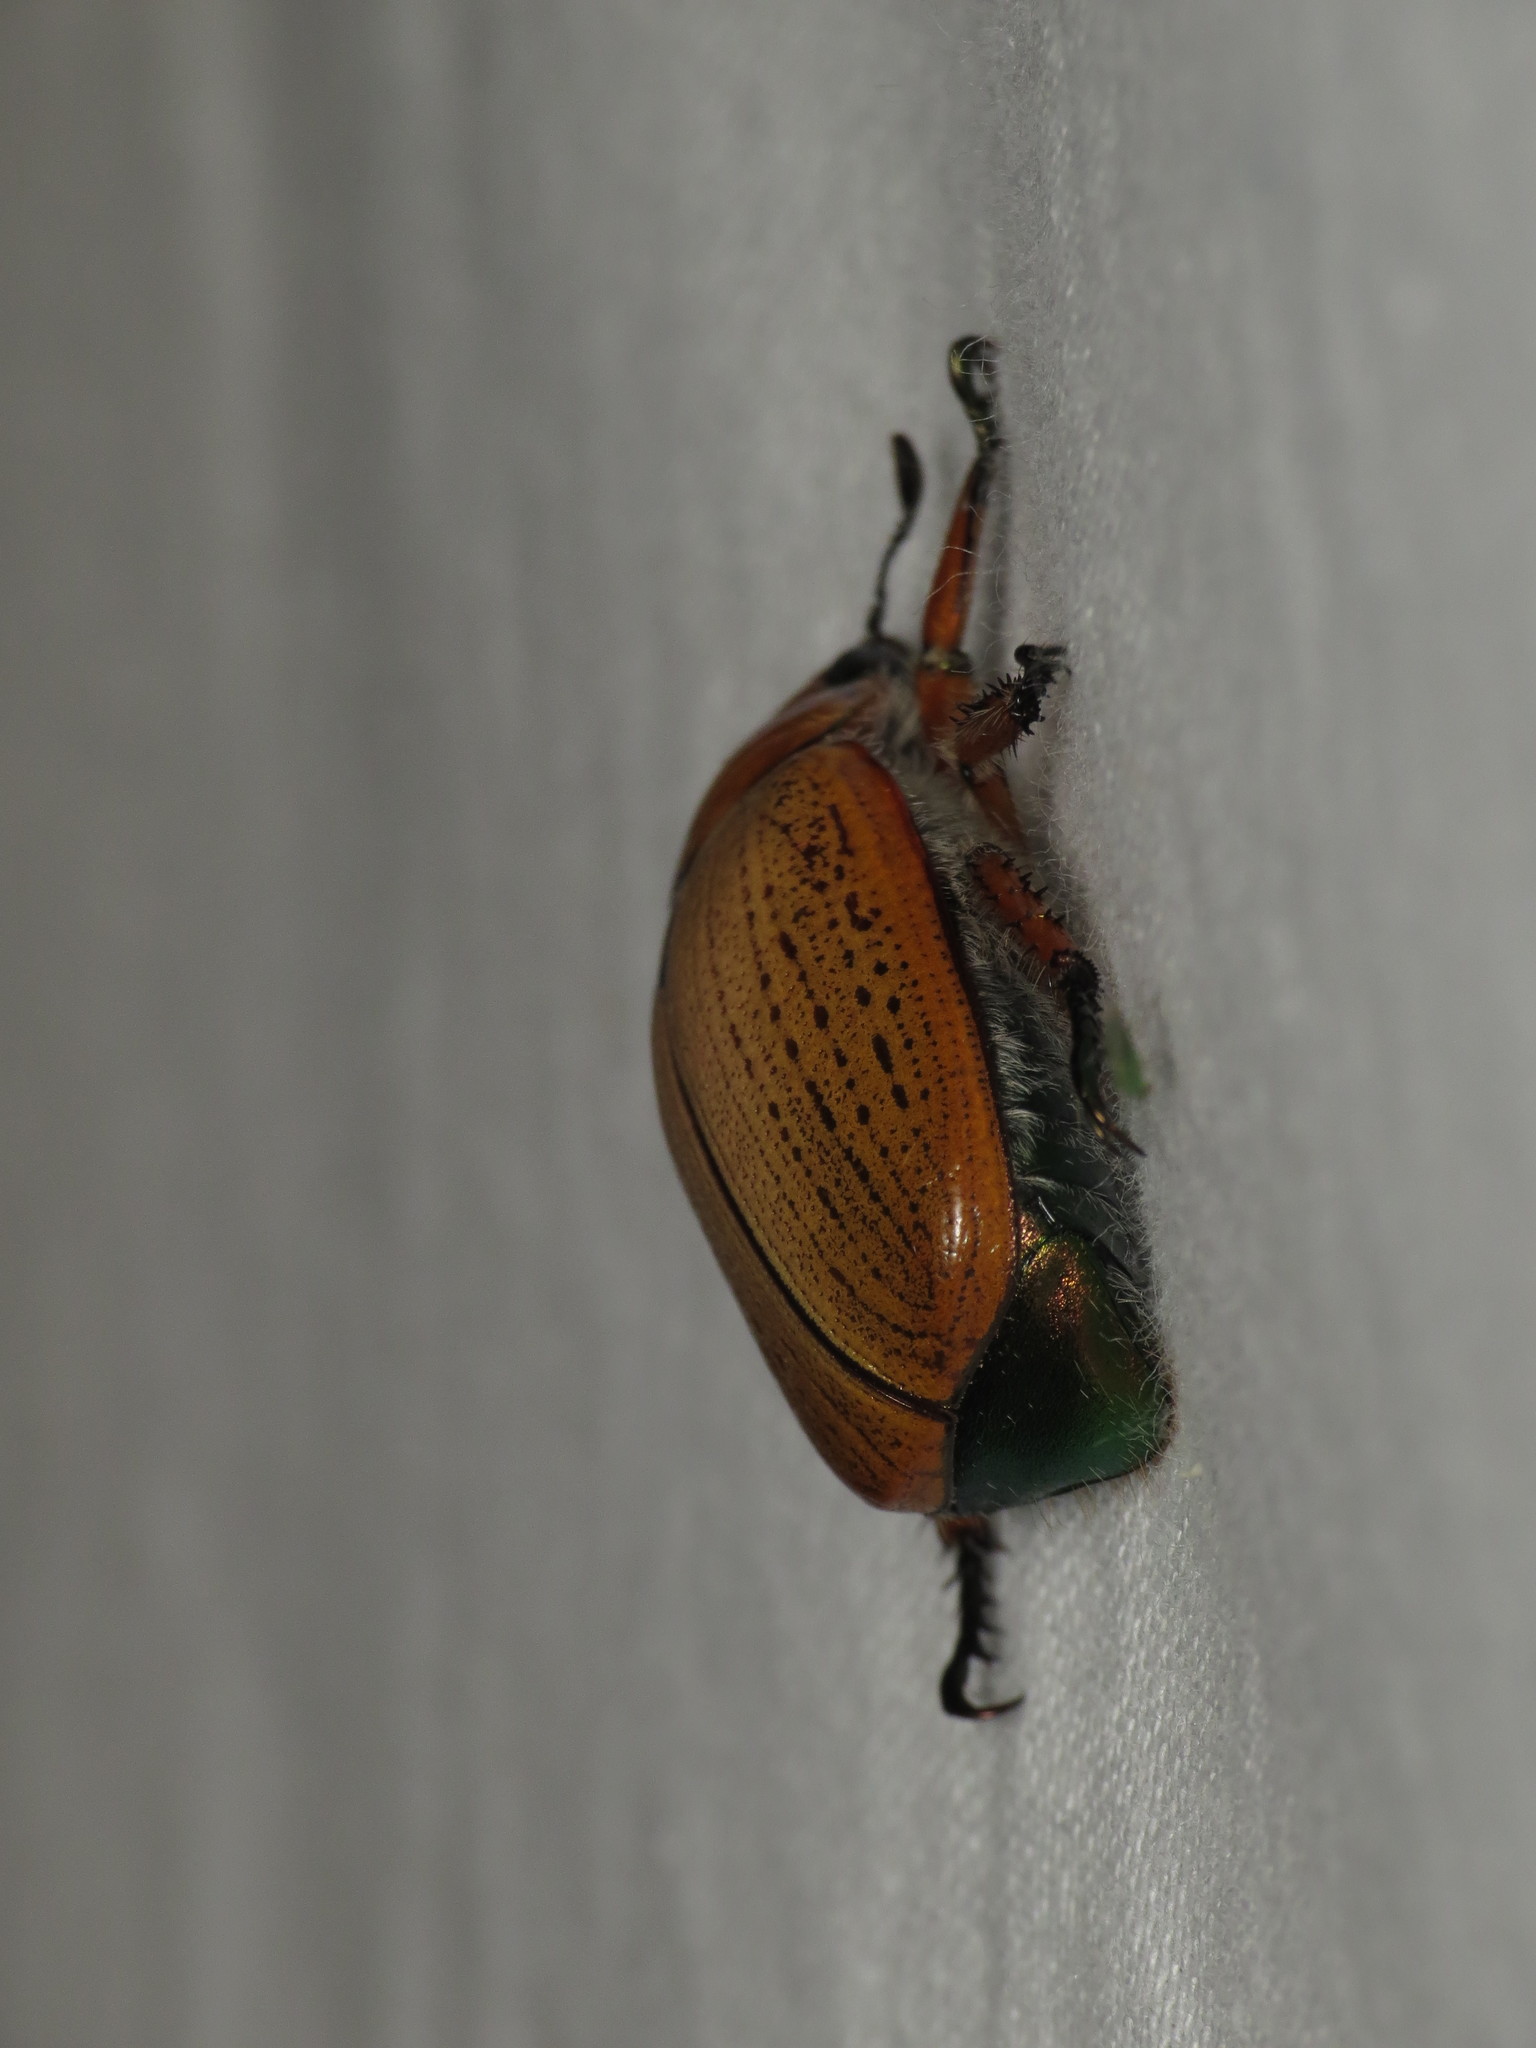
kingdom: Animalia
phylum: Arthropoda
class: Insecta
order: Coleoptera
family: Scarabaeidae
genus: Anoplognathus
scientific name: Anoplognathus brunnipennis
